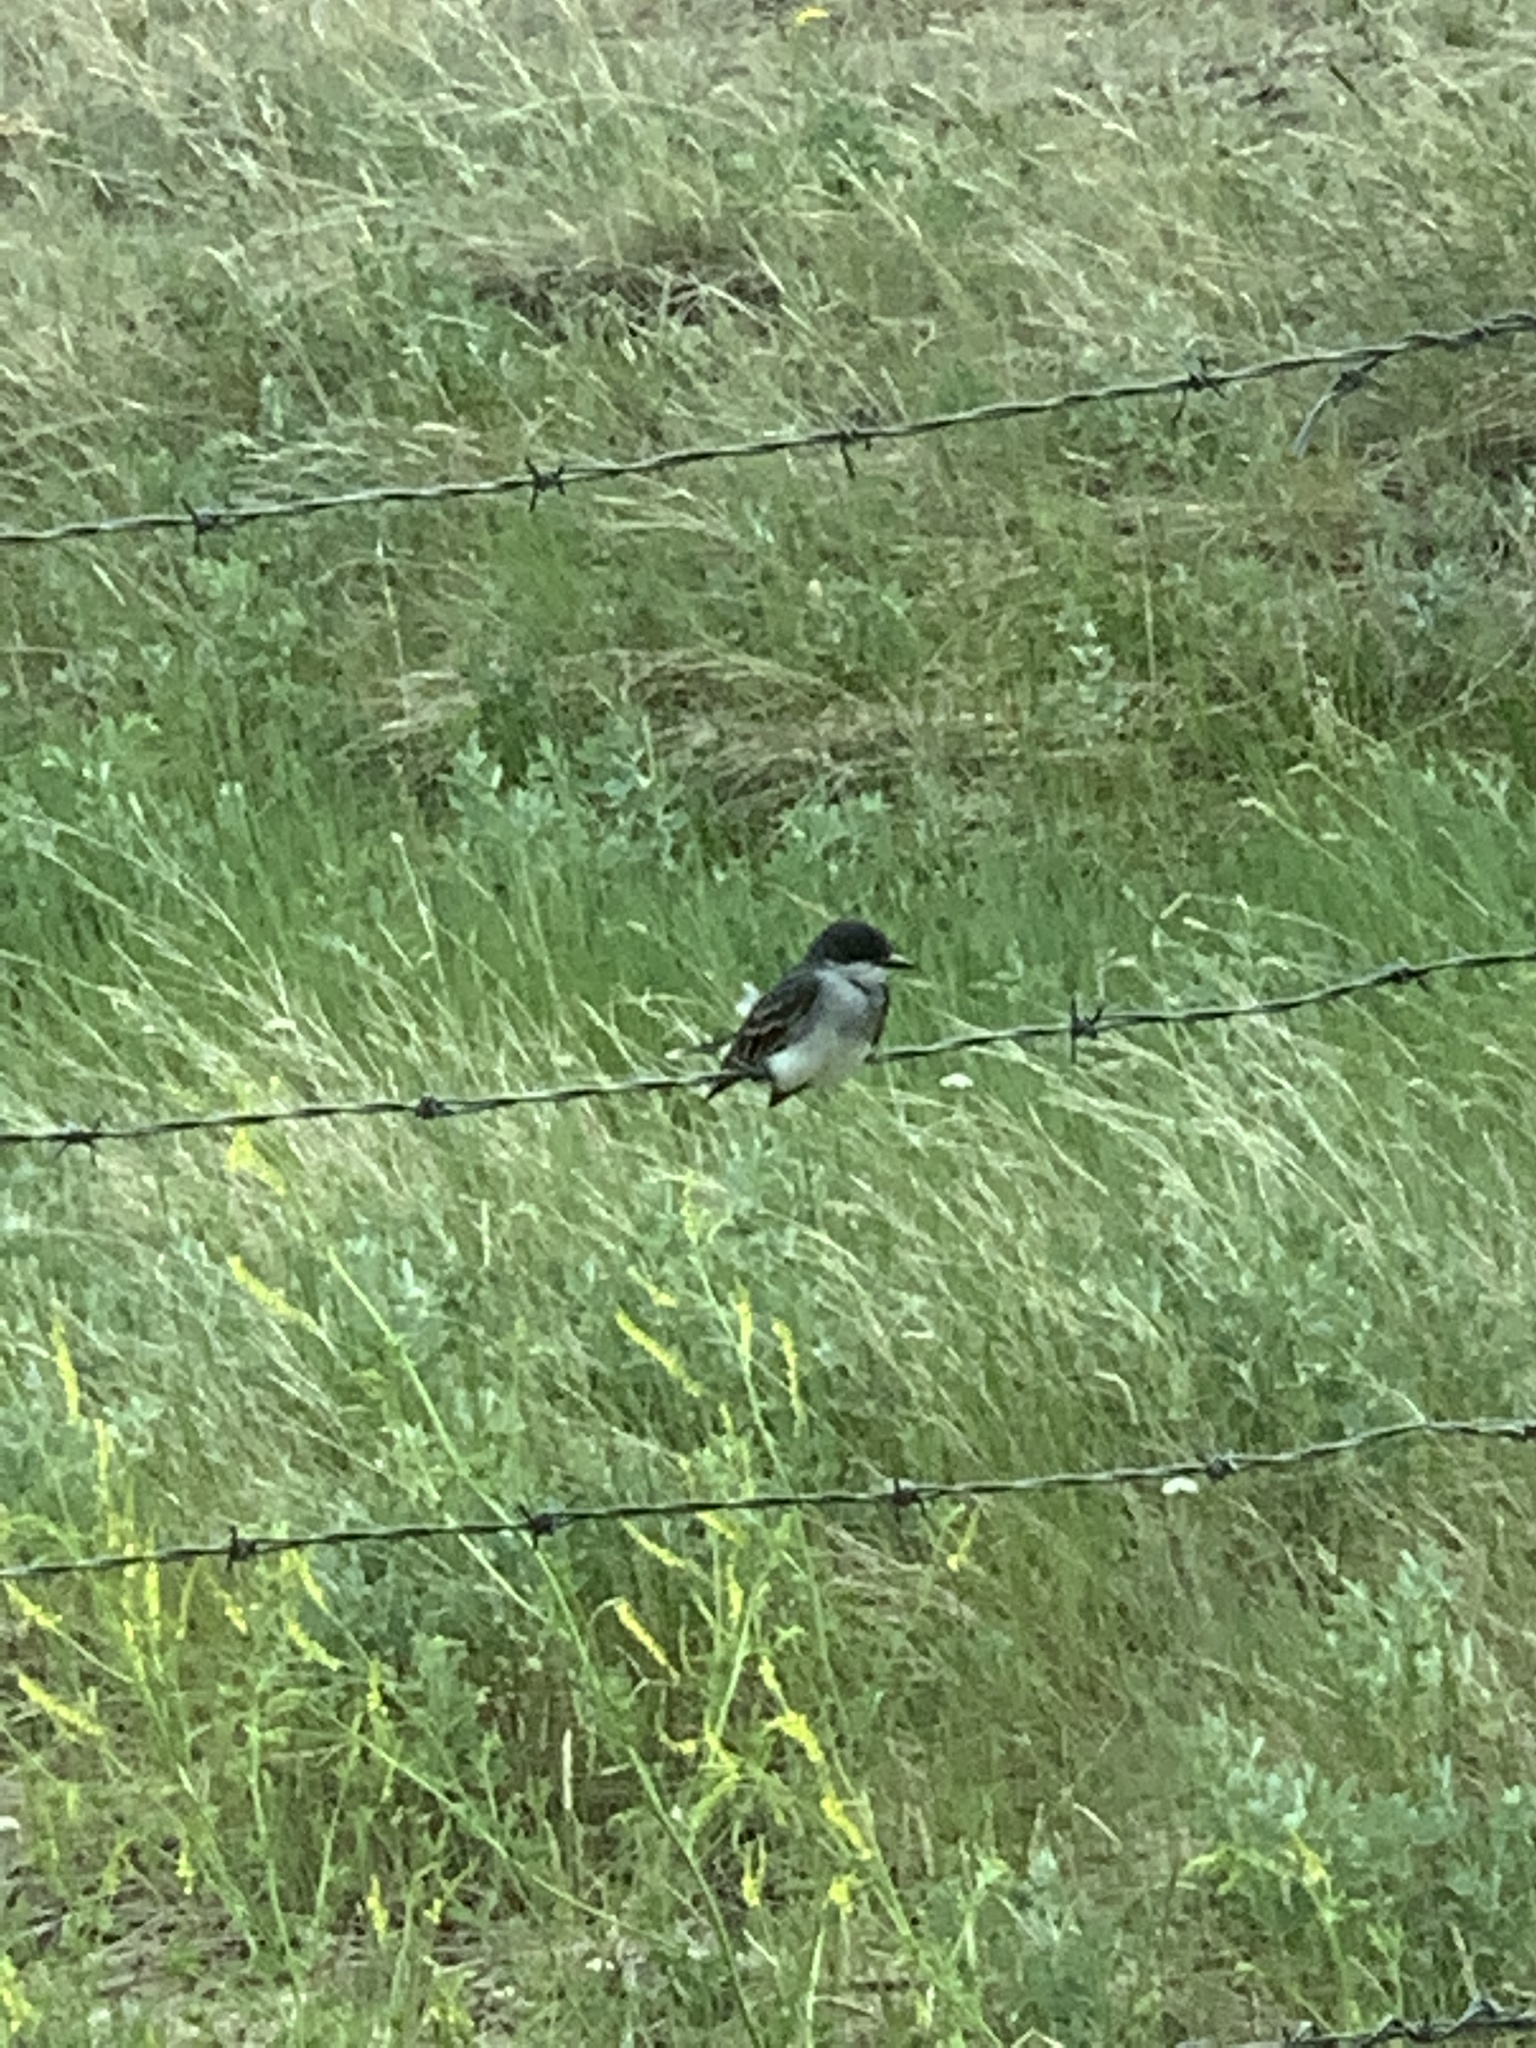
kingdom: Animalia
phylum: Chordata
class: Aves
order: Passeriformes
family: Tyrannidae
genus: Tyrannus
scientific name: Tyrannus tyrannus
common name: Eastern kingbird
